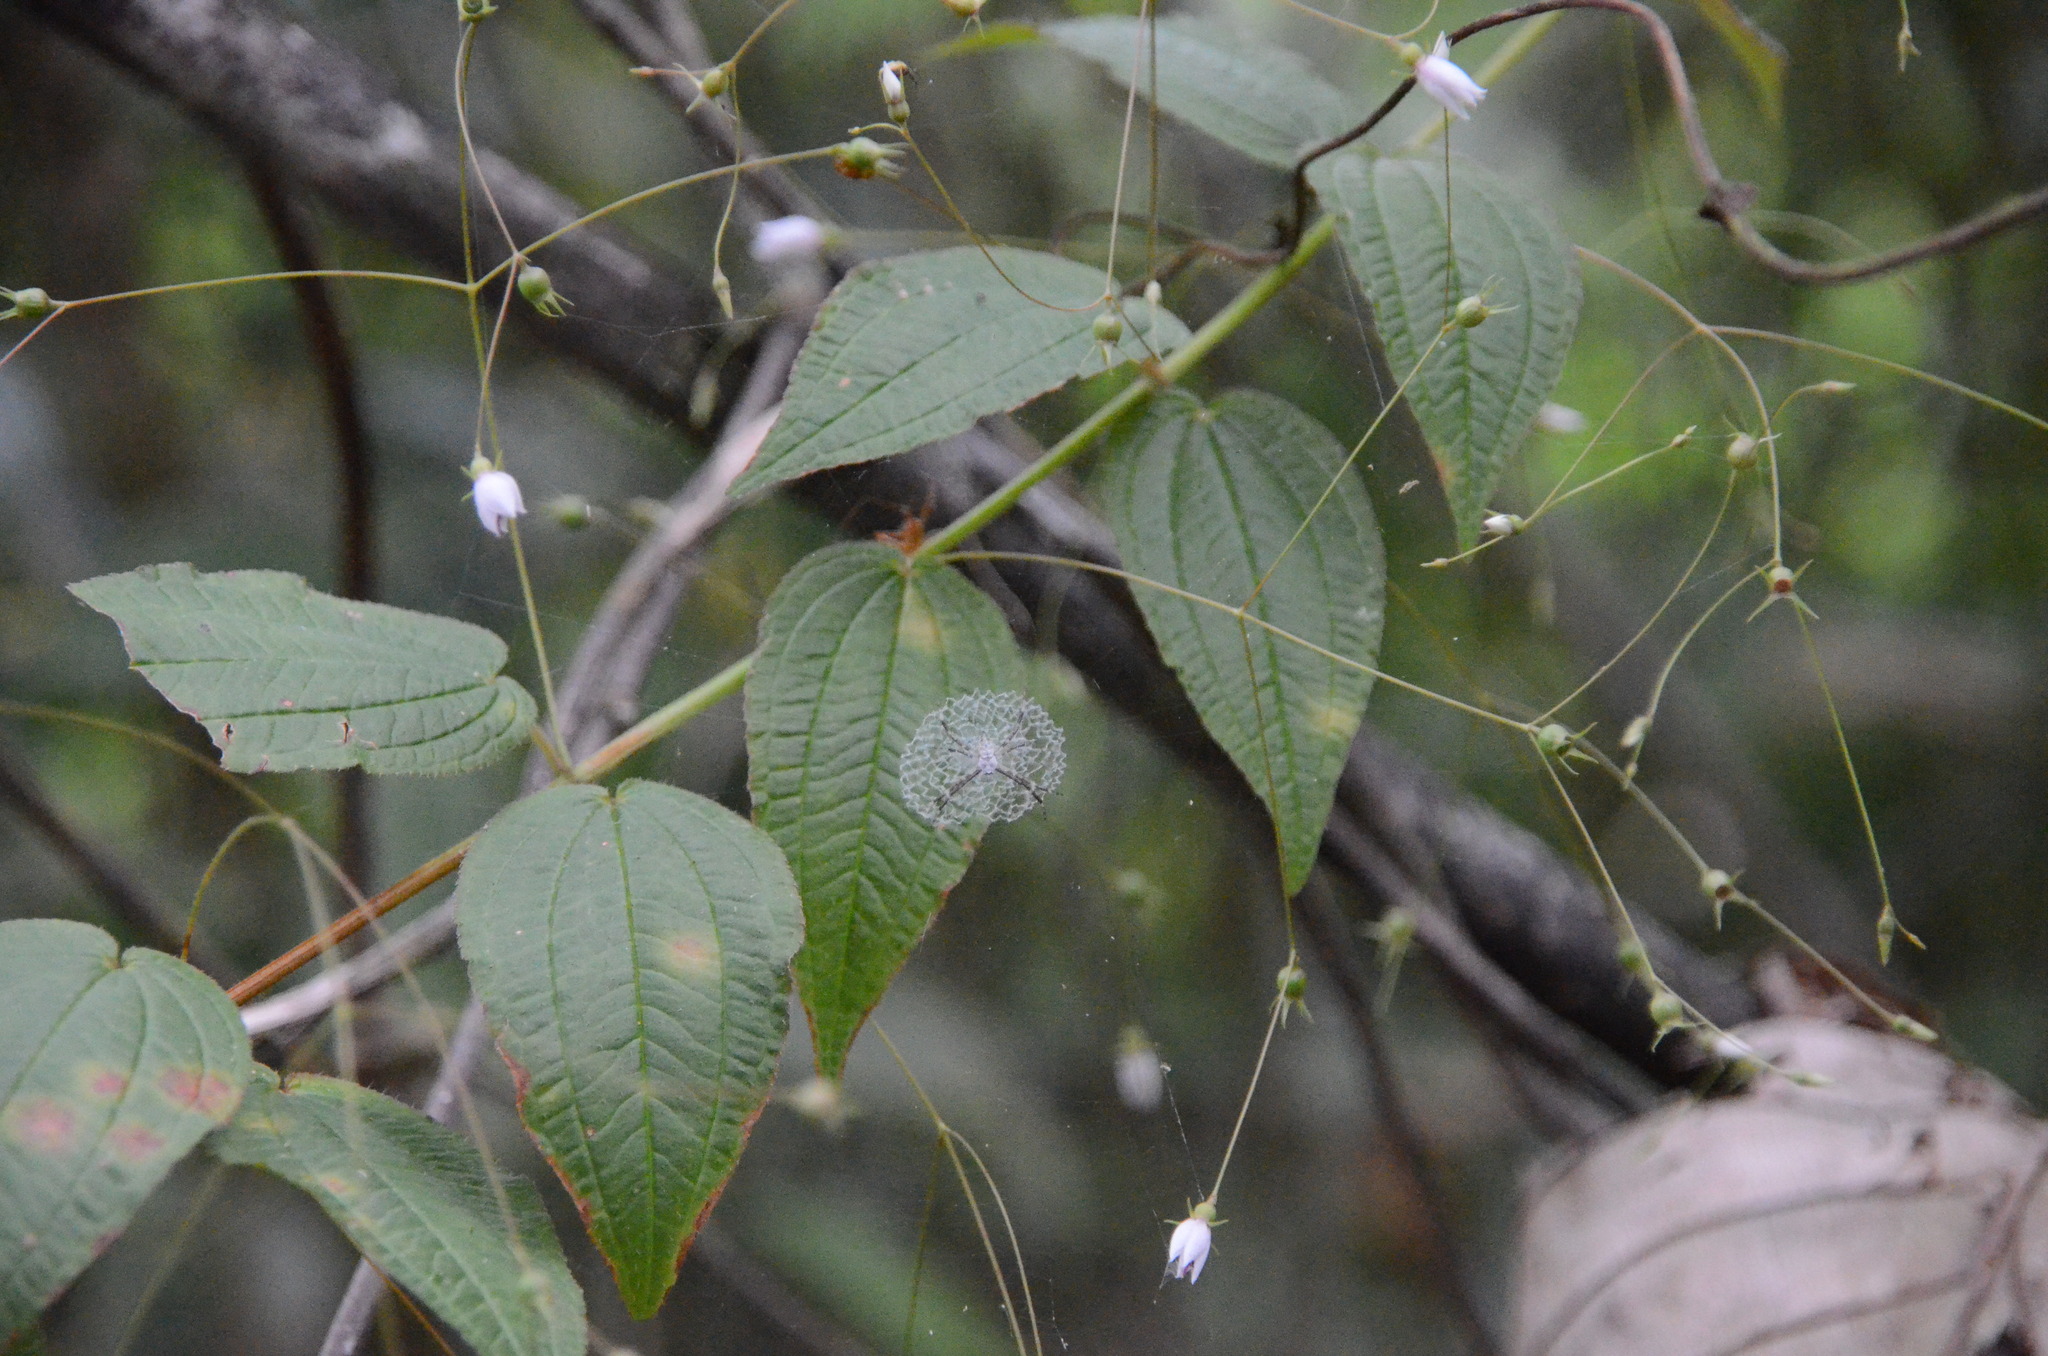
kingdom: Plantae
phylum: Tracheophyta
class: Magnoliopsida
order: Myrtales
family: Melastomataceae
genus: Nepsera
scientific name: Nepsera aquatica
